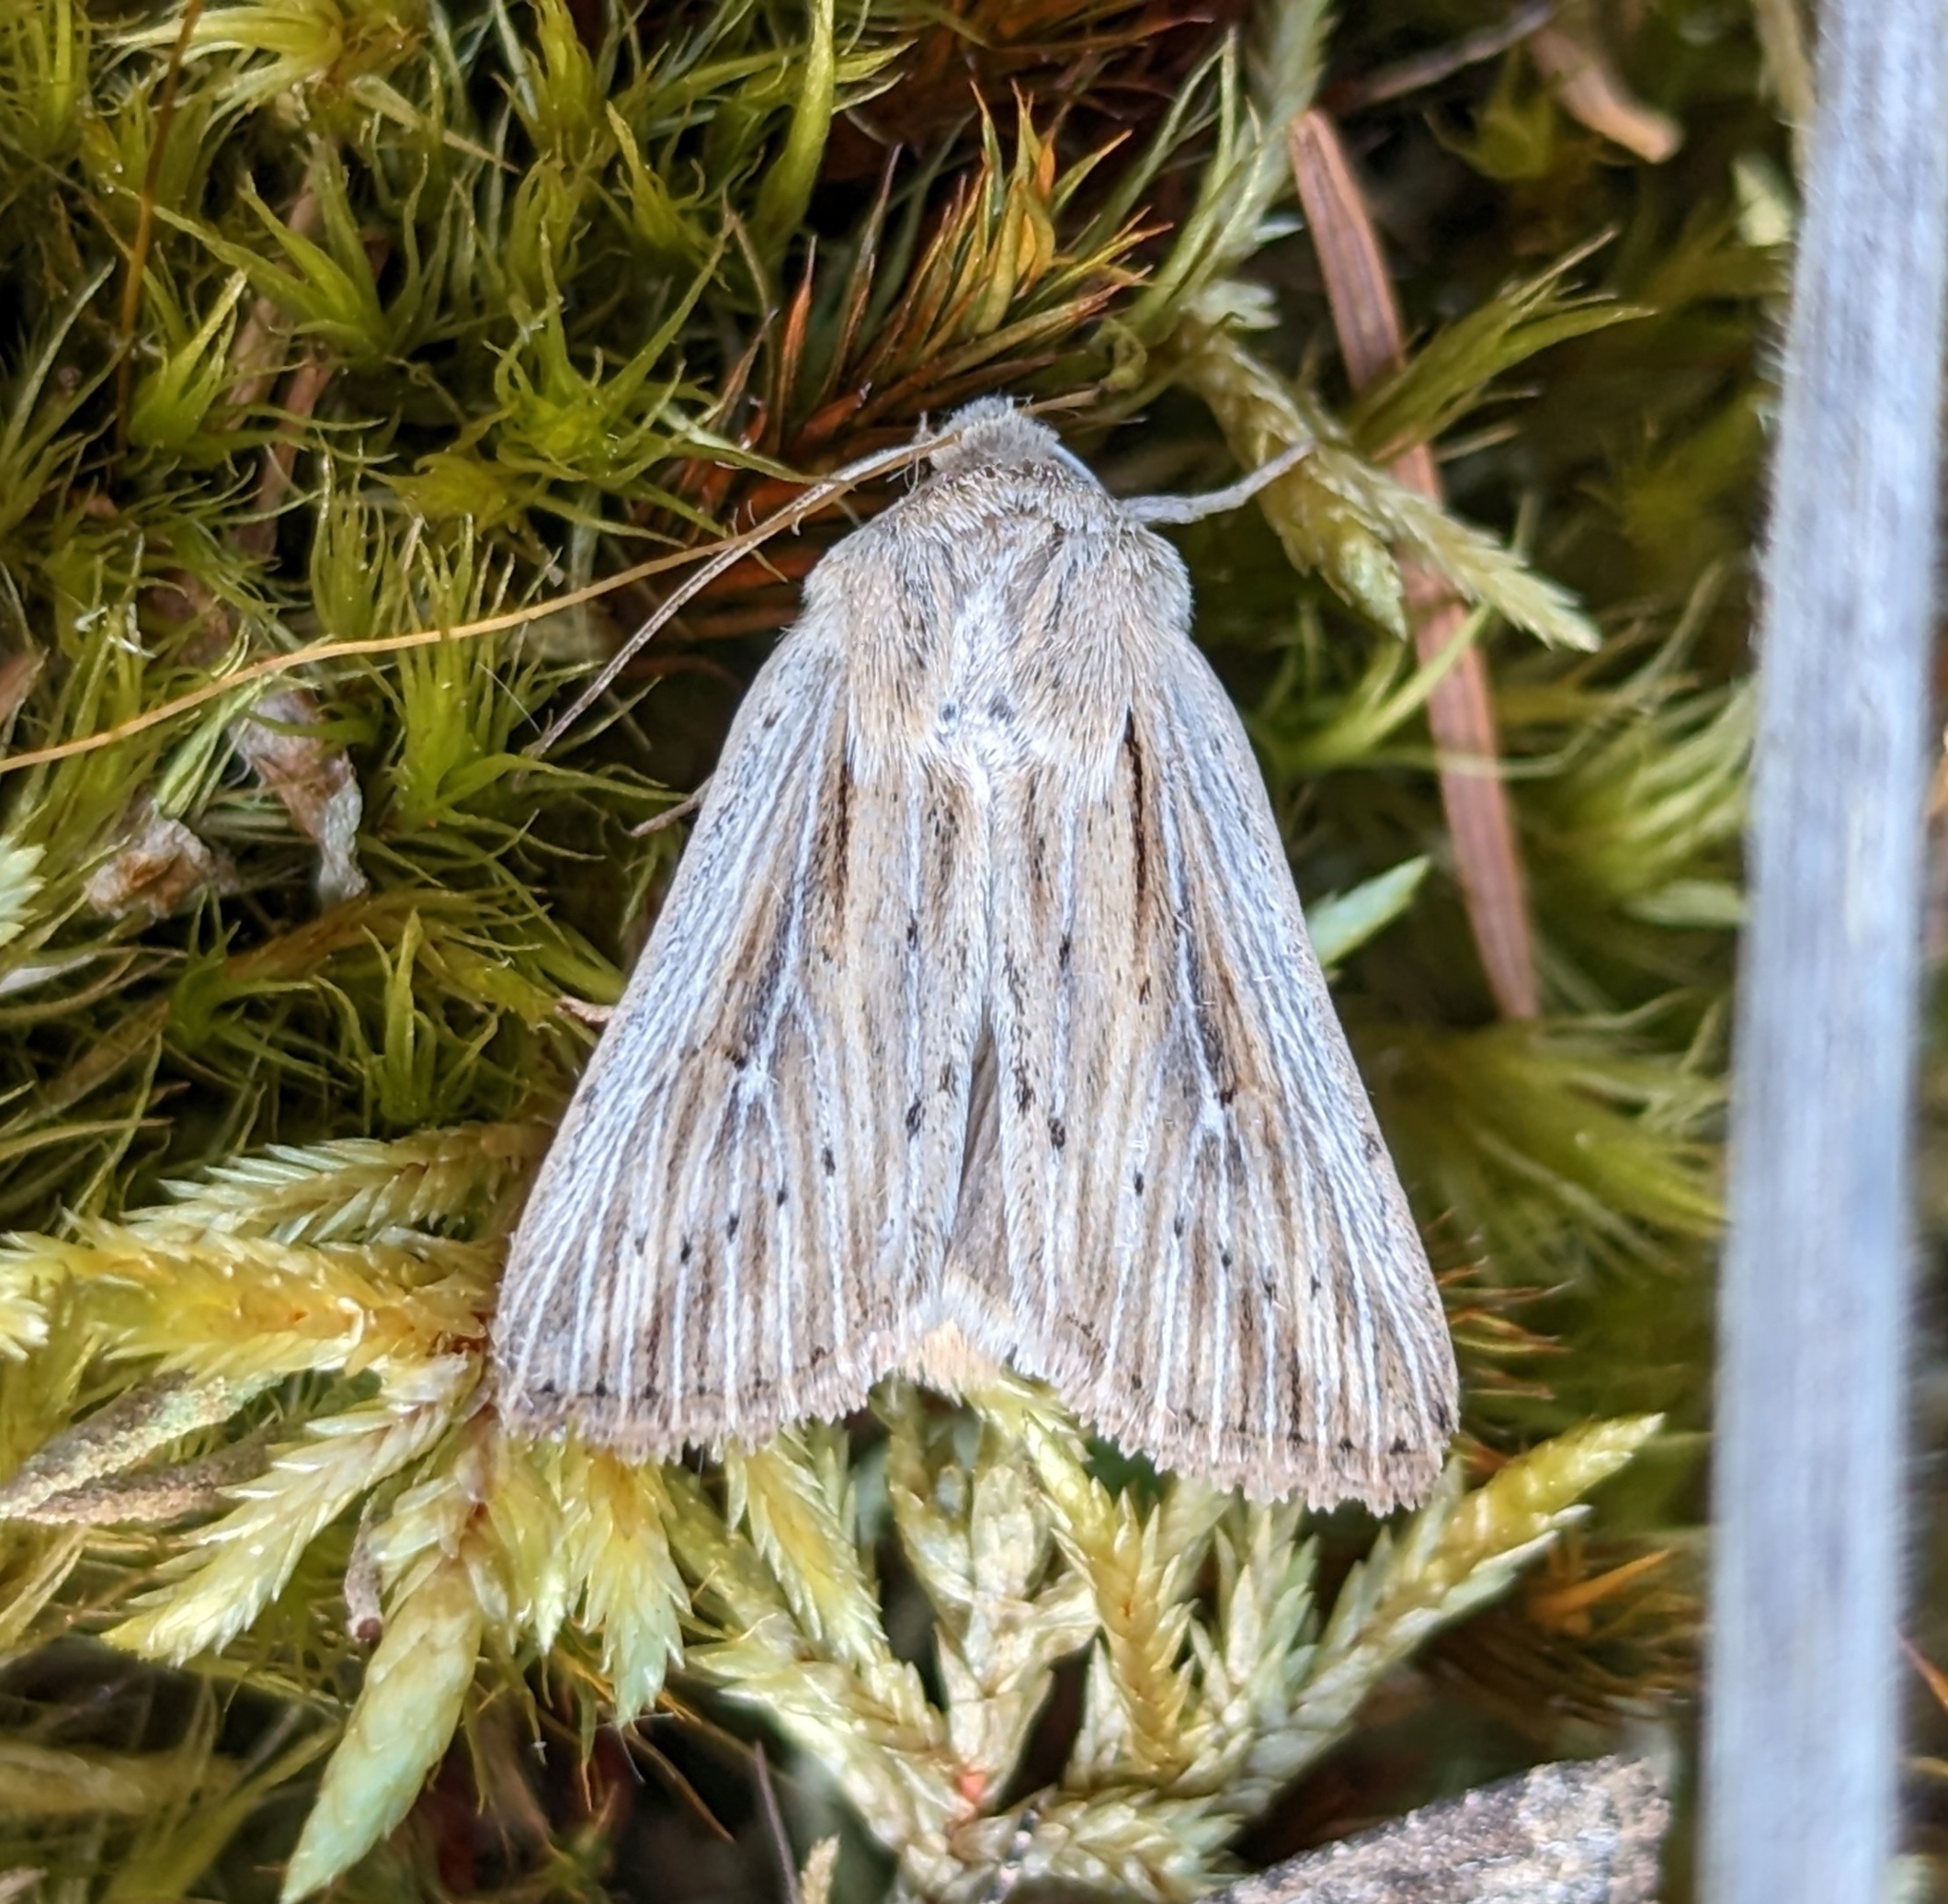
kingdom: Animalia
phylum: Arthropoda
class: Insecta
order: Lepidoptera
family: Noctuidae
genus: Leucania
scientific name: Leucania insueta
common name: Heterodox wainscot moth
